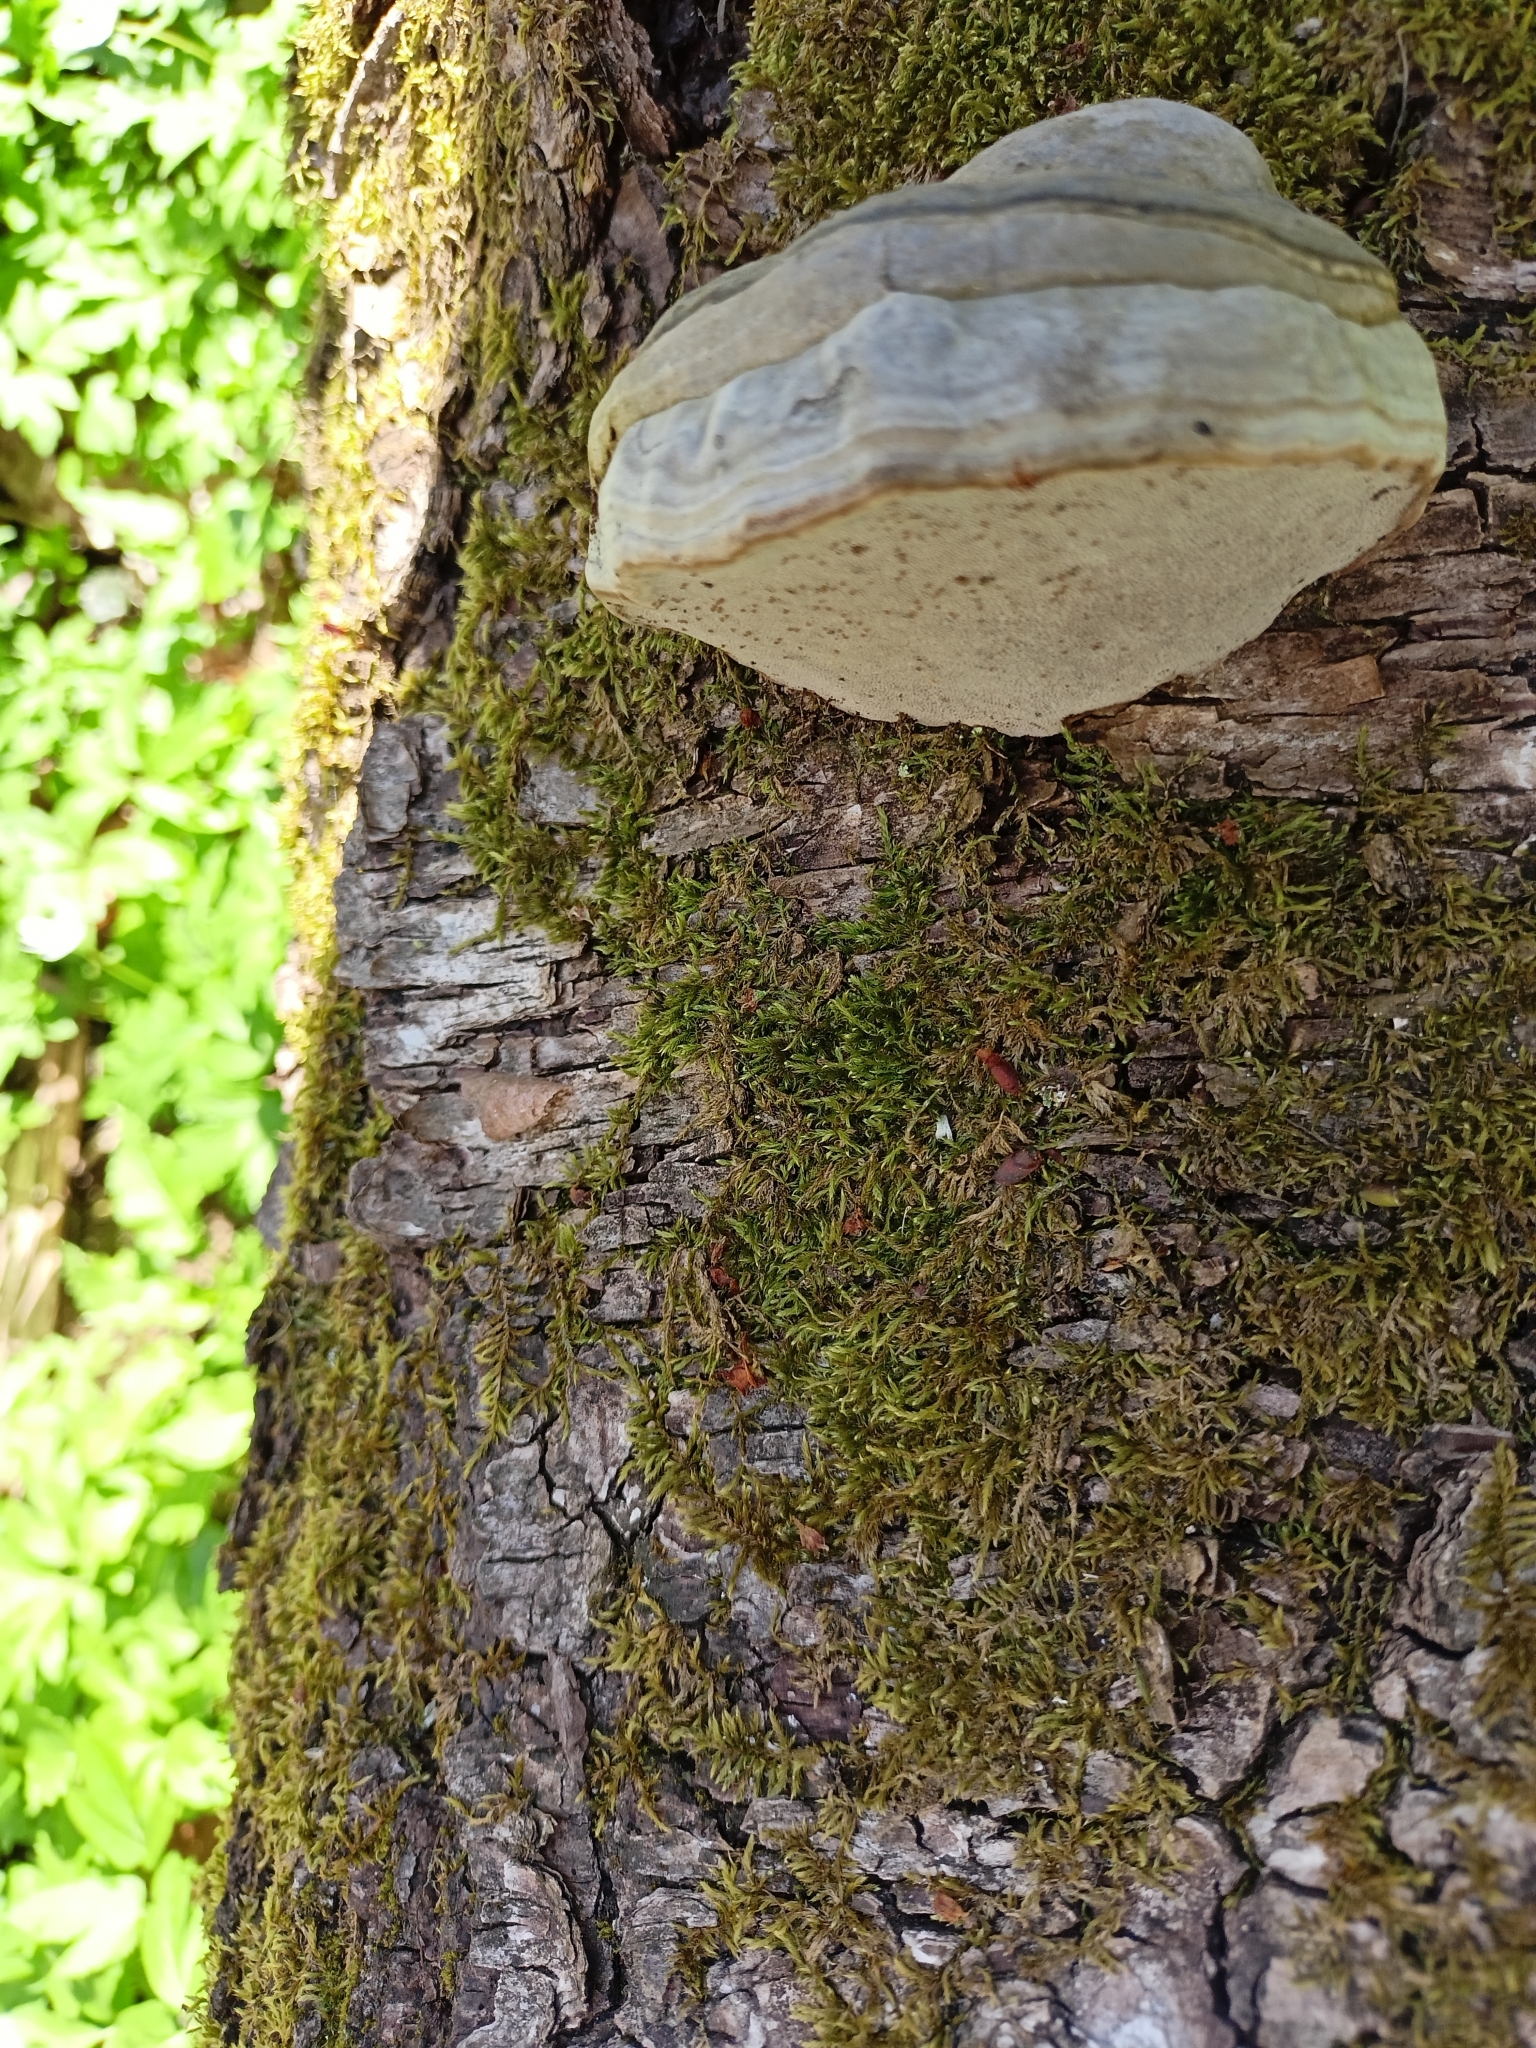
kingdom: Fungi
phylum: Basidiomycota
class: Agaricomycetes
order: Polyporales
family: Polyporaceae
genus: Fomes
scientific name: Fomes fomentarius
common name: Hoof fungus
